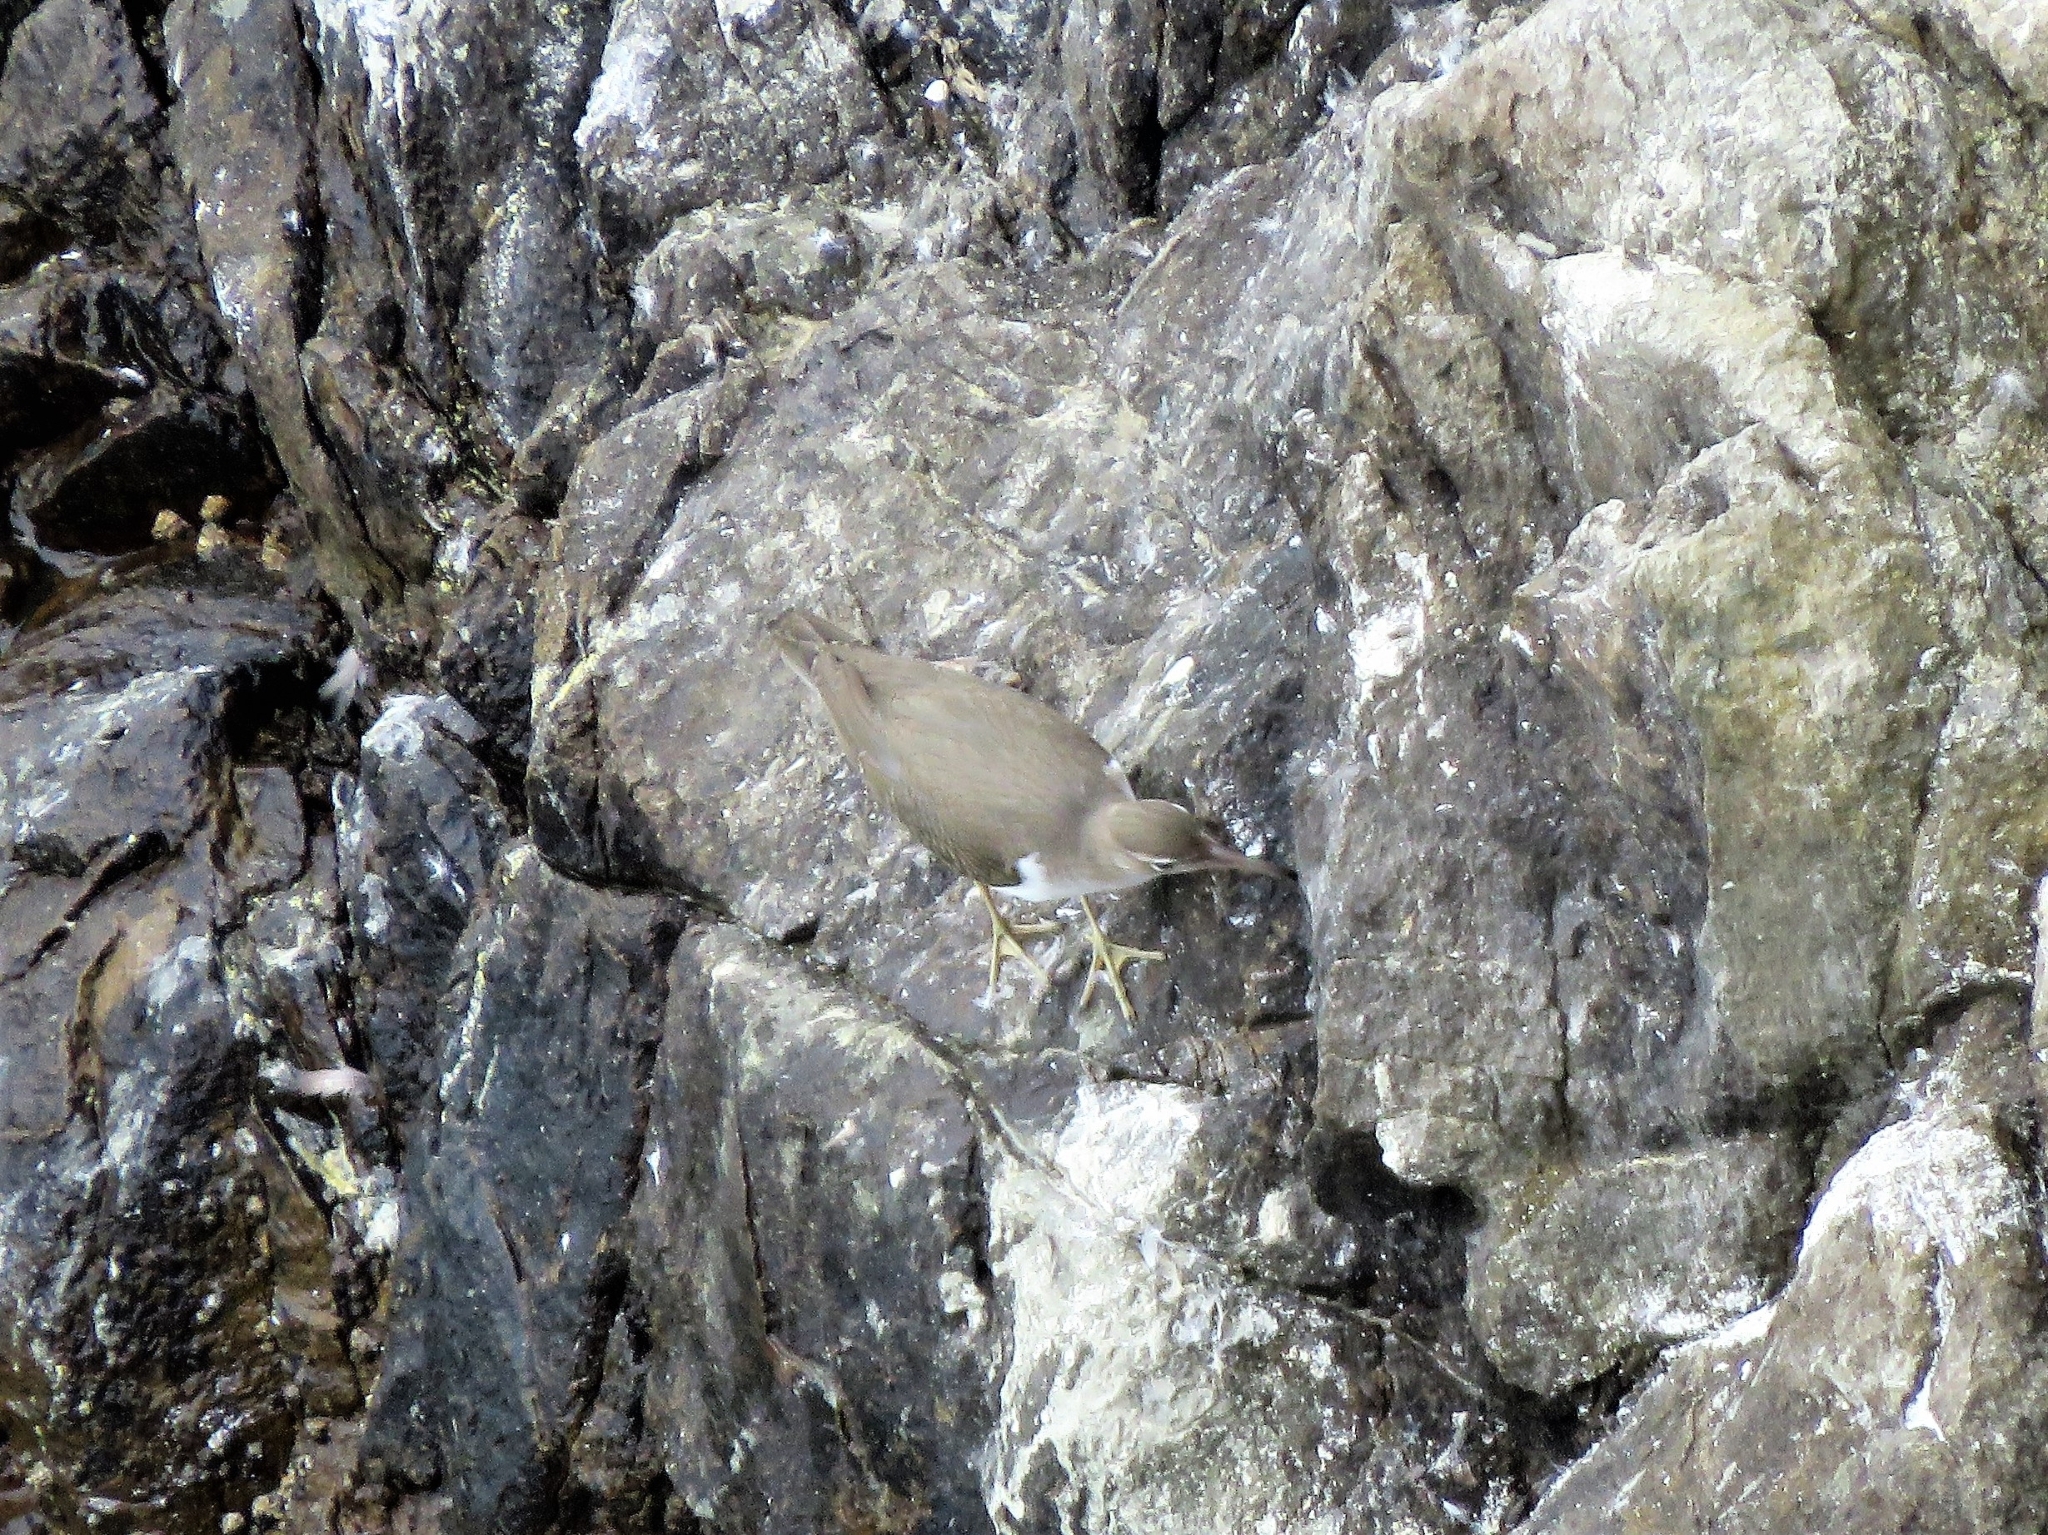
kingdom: Animalia
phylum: Chordata
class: Aves
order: Charadriiformes
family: Scolopacidae
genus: Actitis
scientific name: Actitis macularius
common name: Spotted sandpiper
